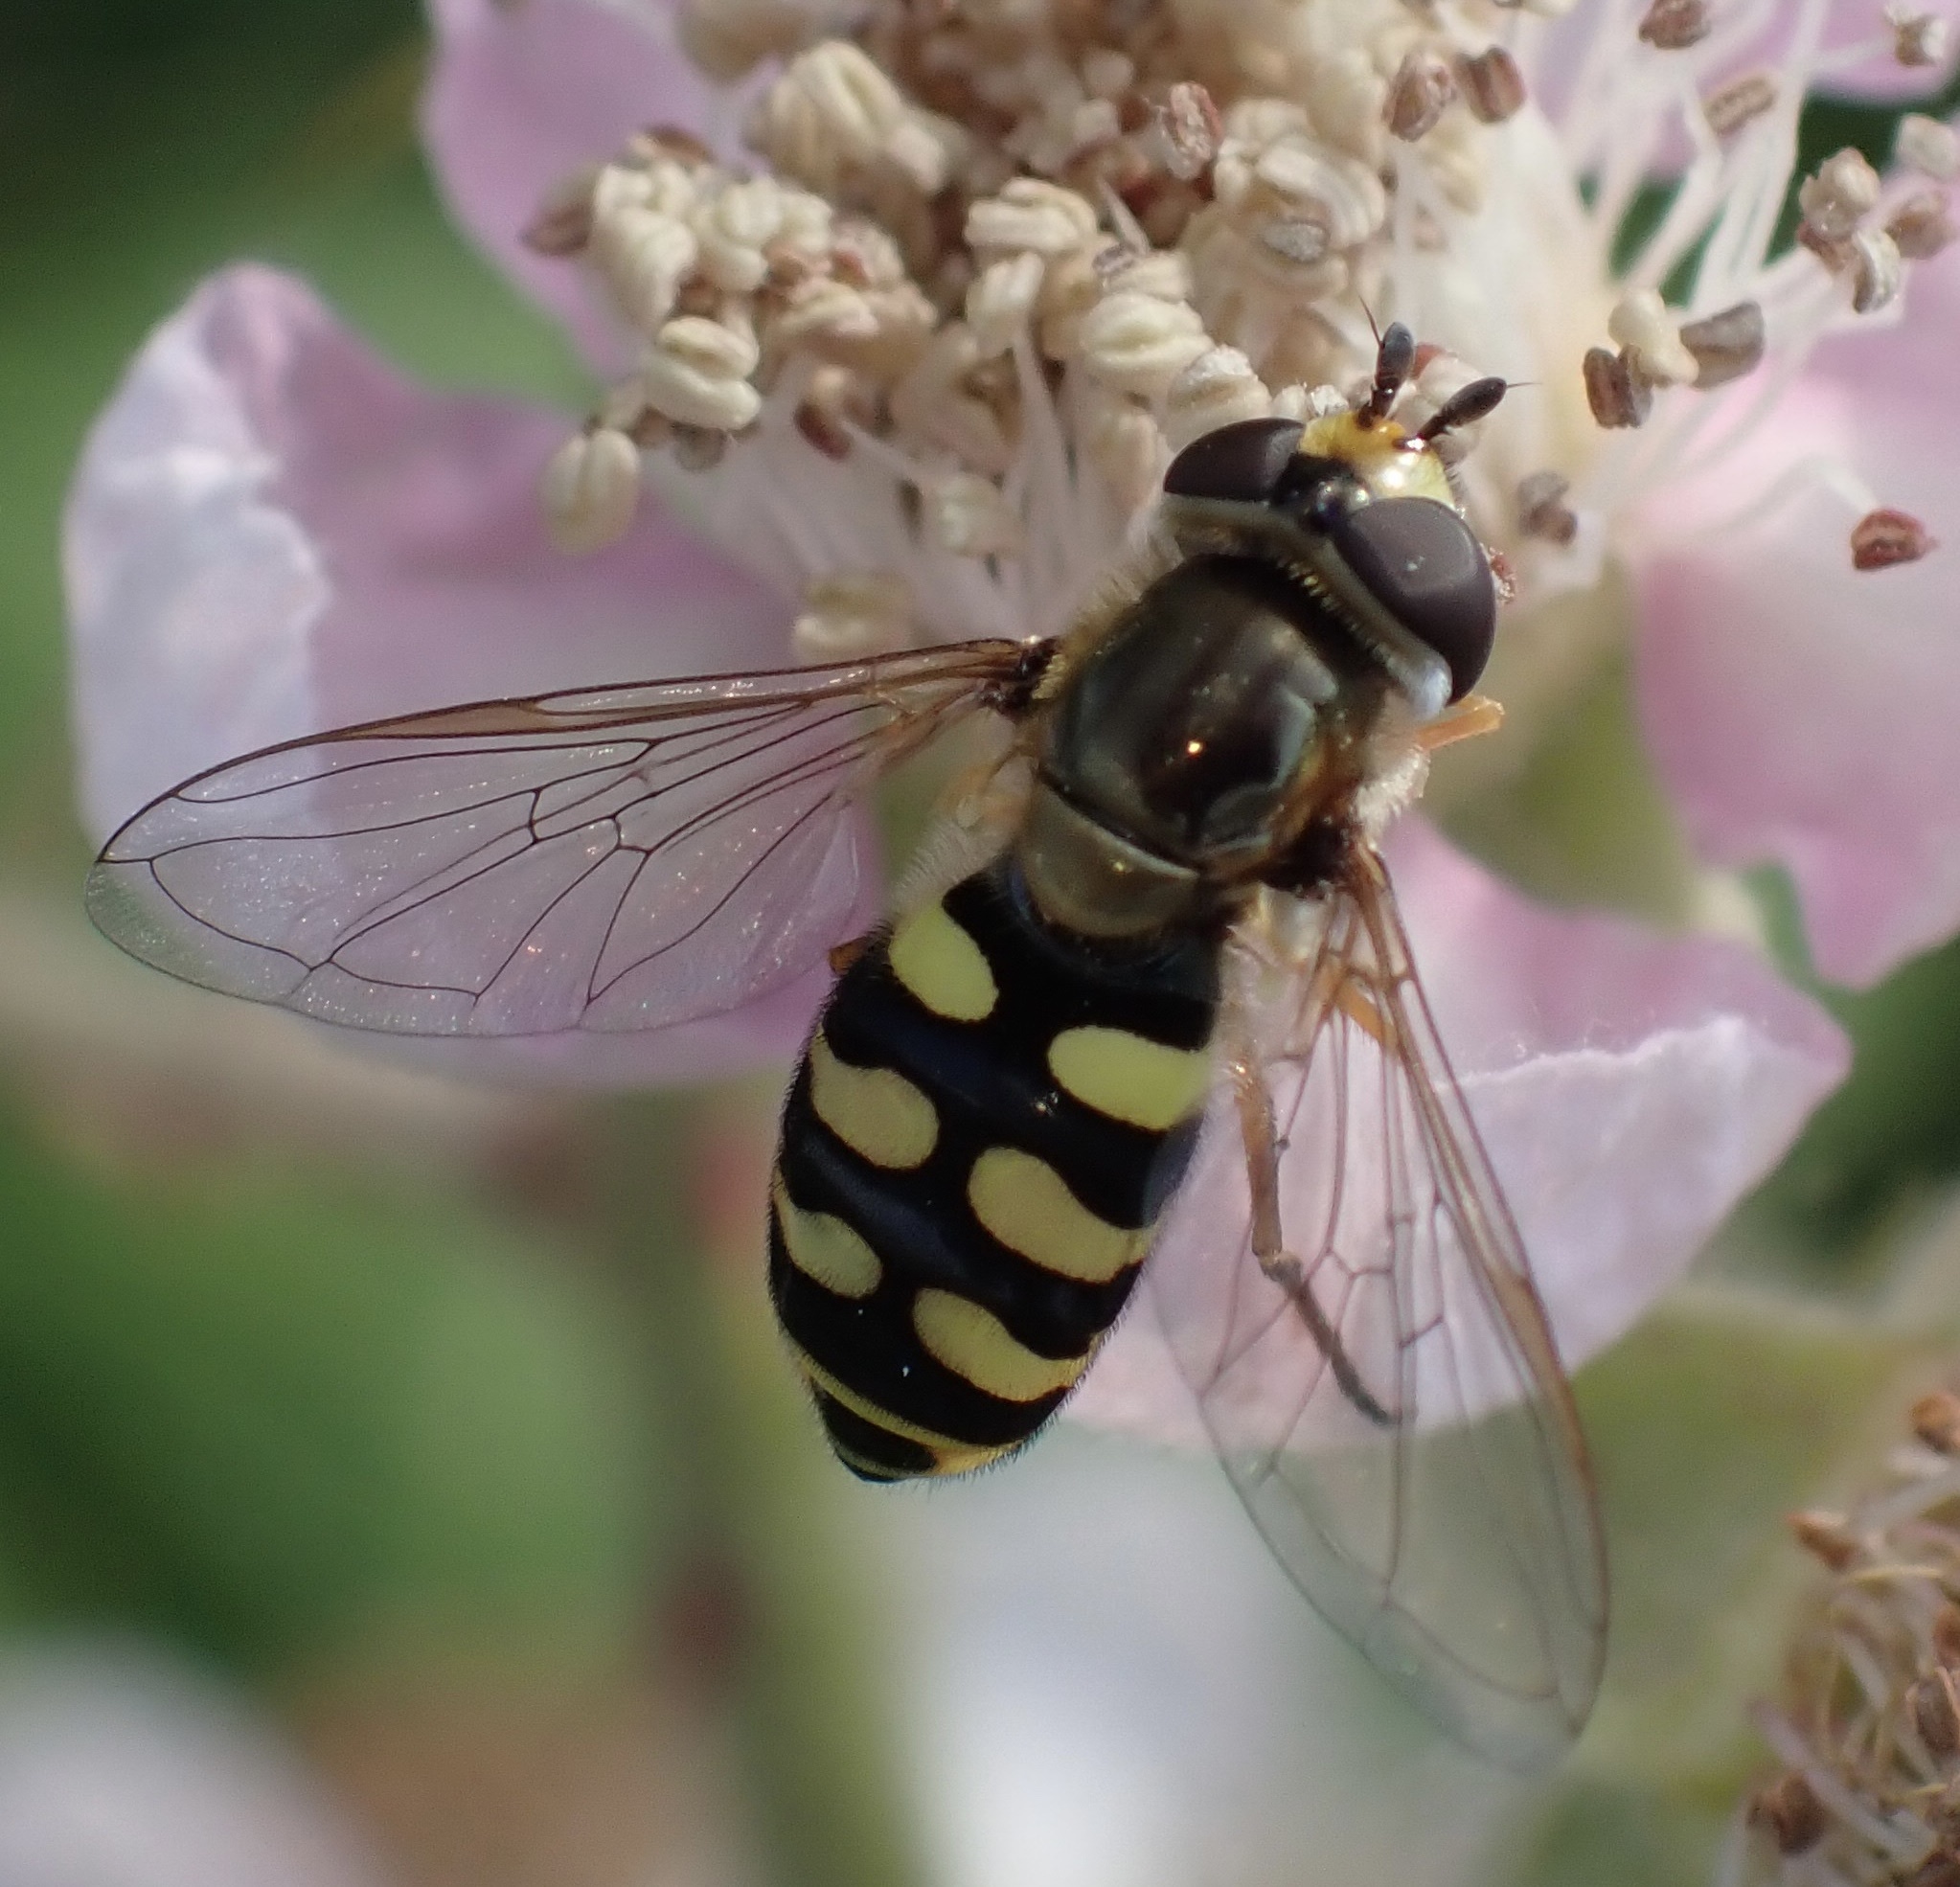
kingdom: Animalia
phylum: Arthropoda
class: Insecta
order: Diptera
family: Syrphidae
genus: Eupeodes
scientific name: Eupeodes corollae
